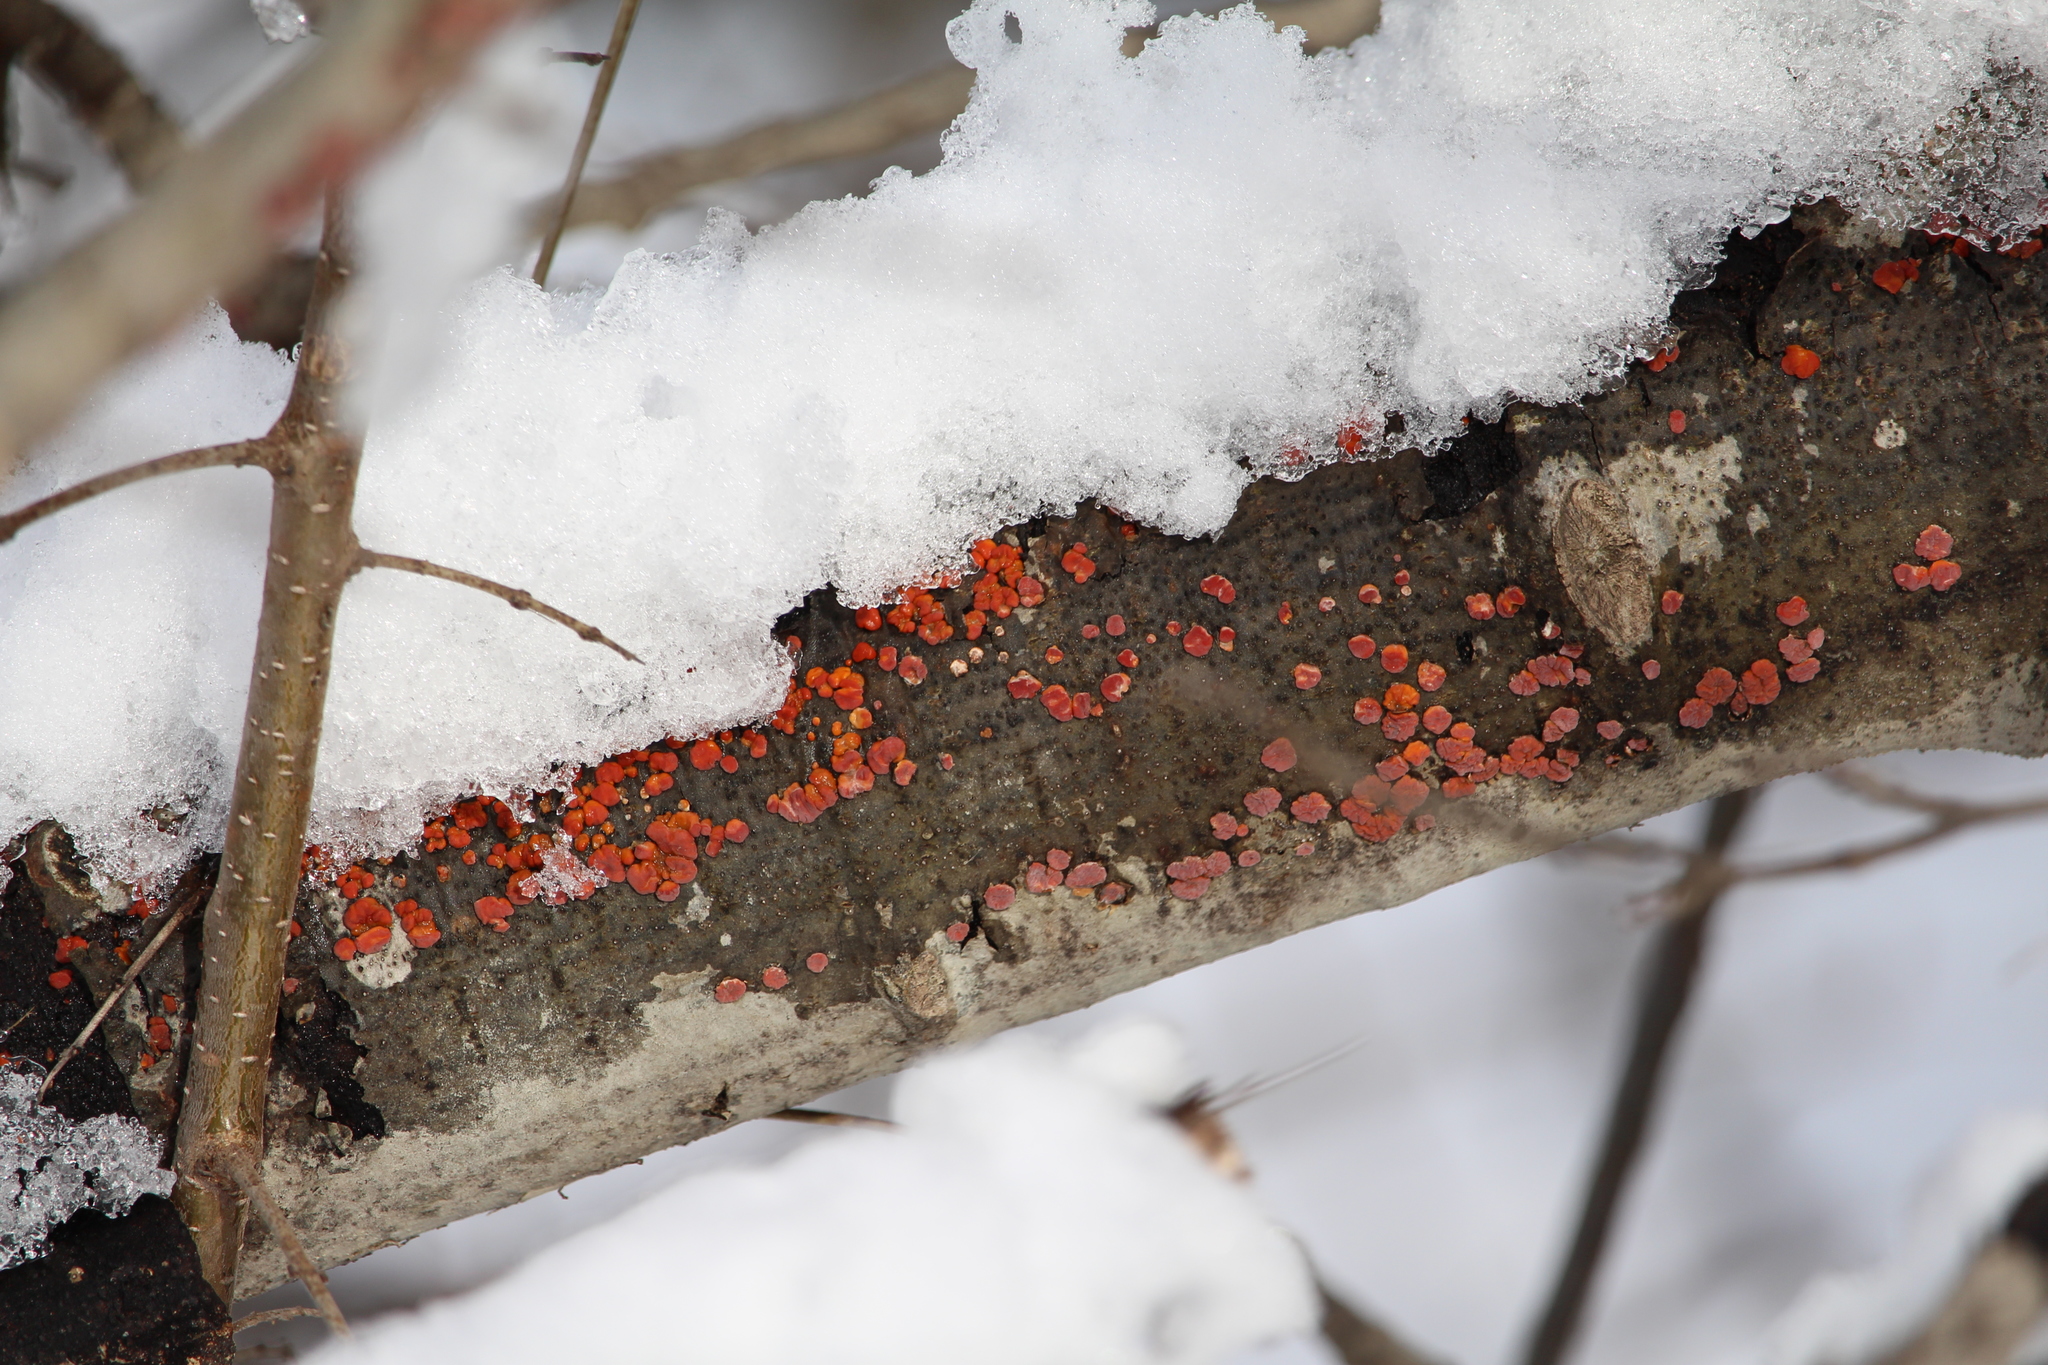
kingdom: Fungi
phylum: Basidiomycota
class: Agaricomycetes
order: Russulales
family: Peniophoraceae
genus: Peniophora
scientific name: Peniophora rufa
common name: Red tree brain fungus
